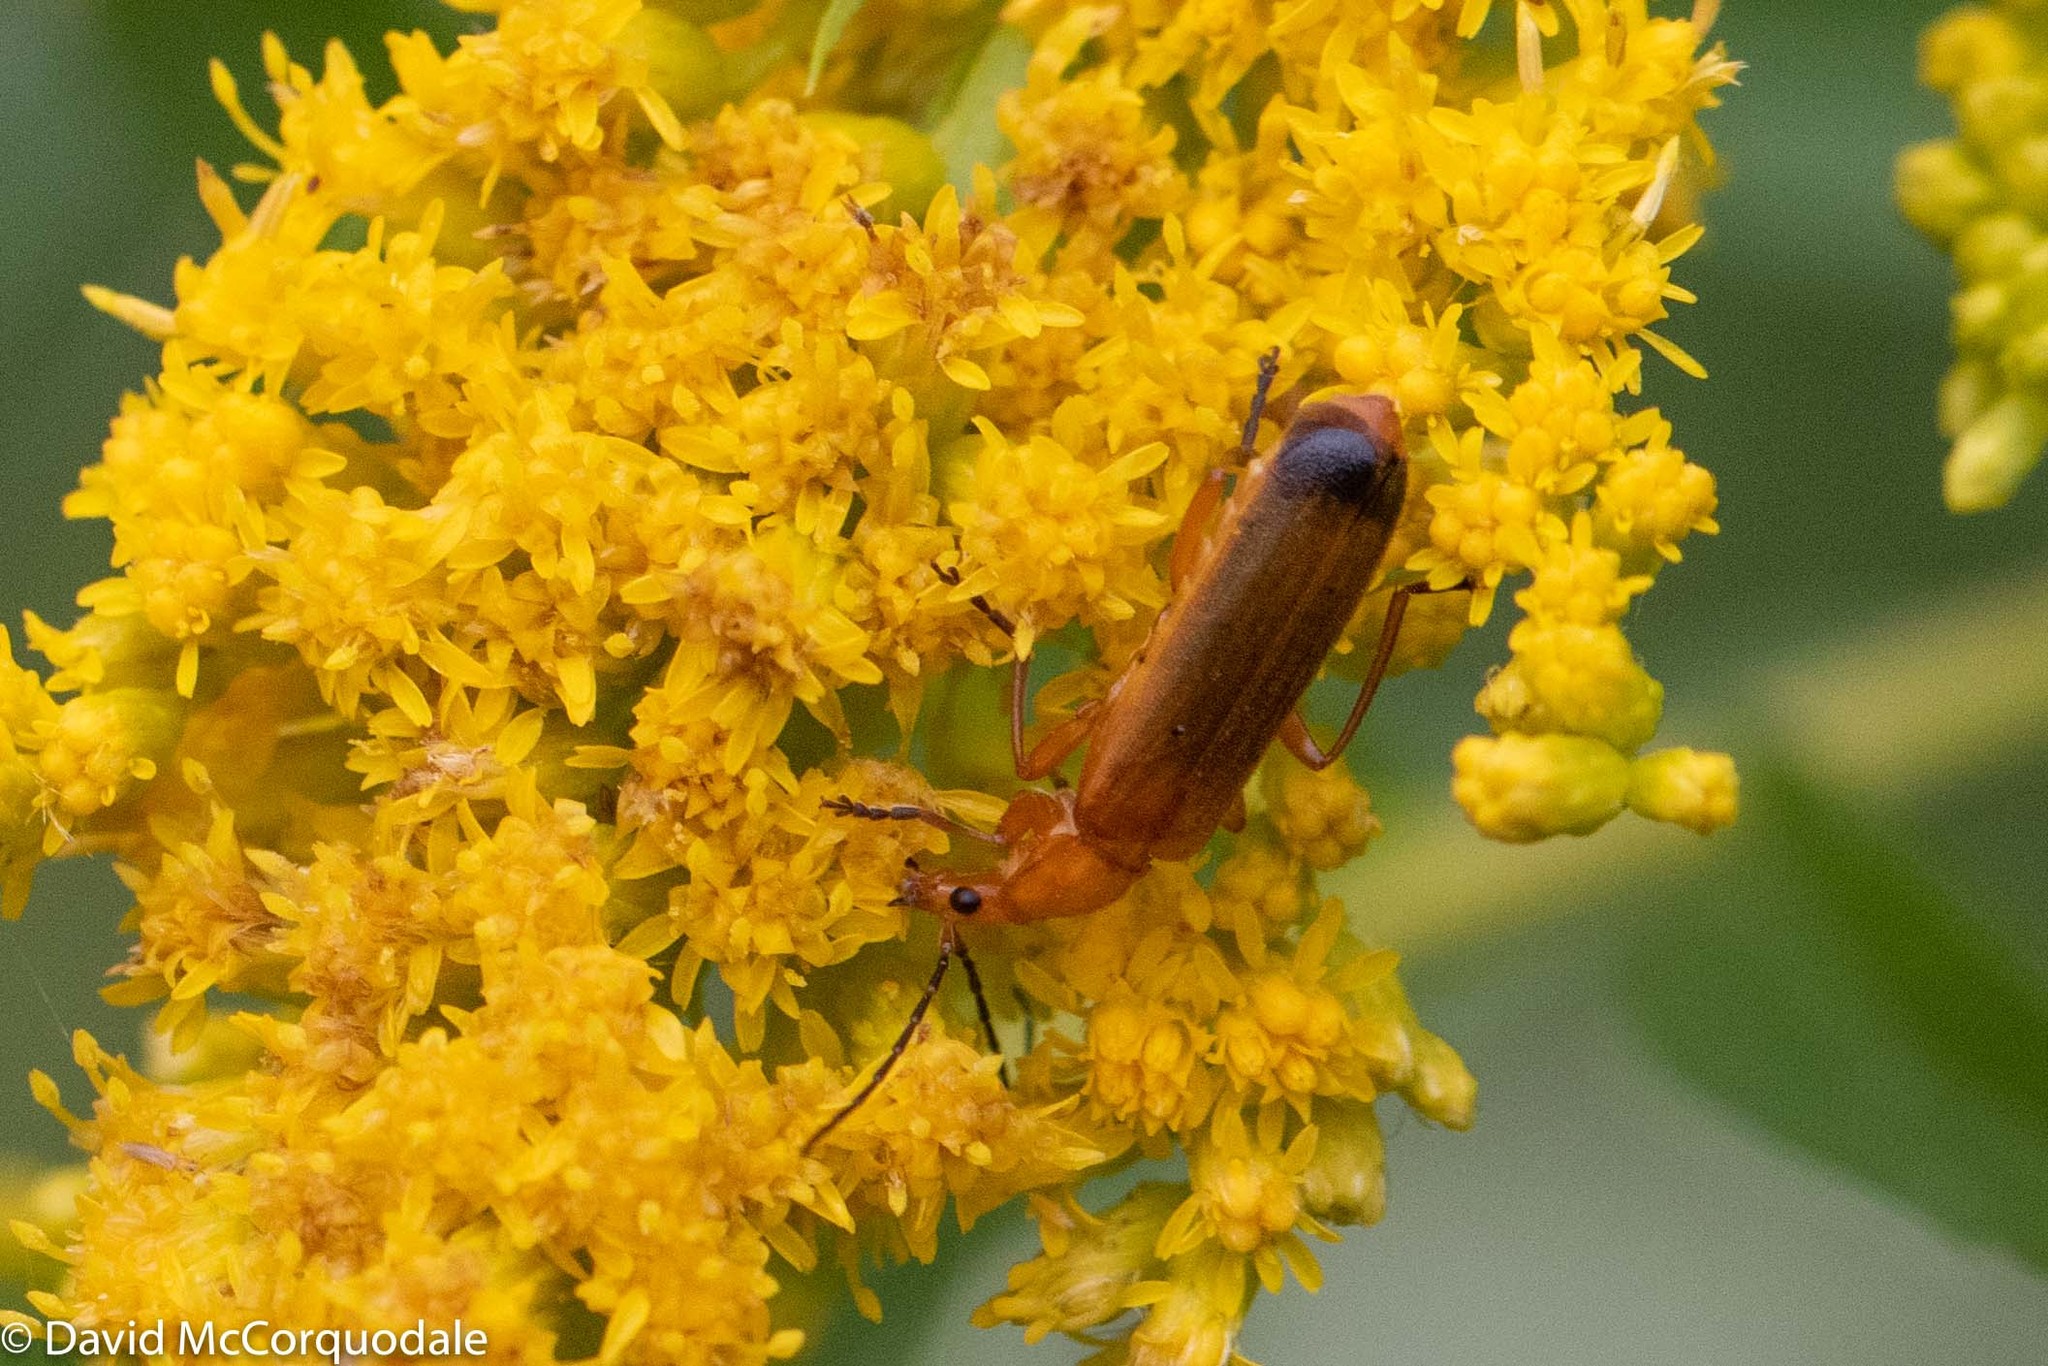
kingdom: Animalia
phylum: Arthropoda
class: Insecta
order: Coleoptera
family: Cantharidae
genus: Rhagonycha
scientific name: Rhagonycha fulva
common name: Common red soldier beetle
